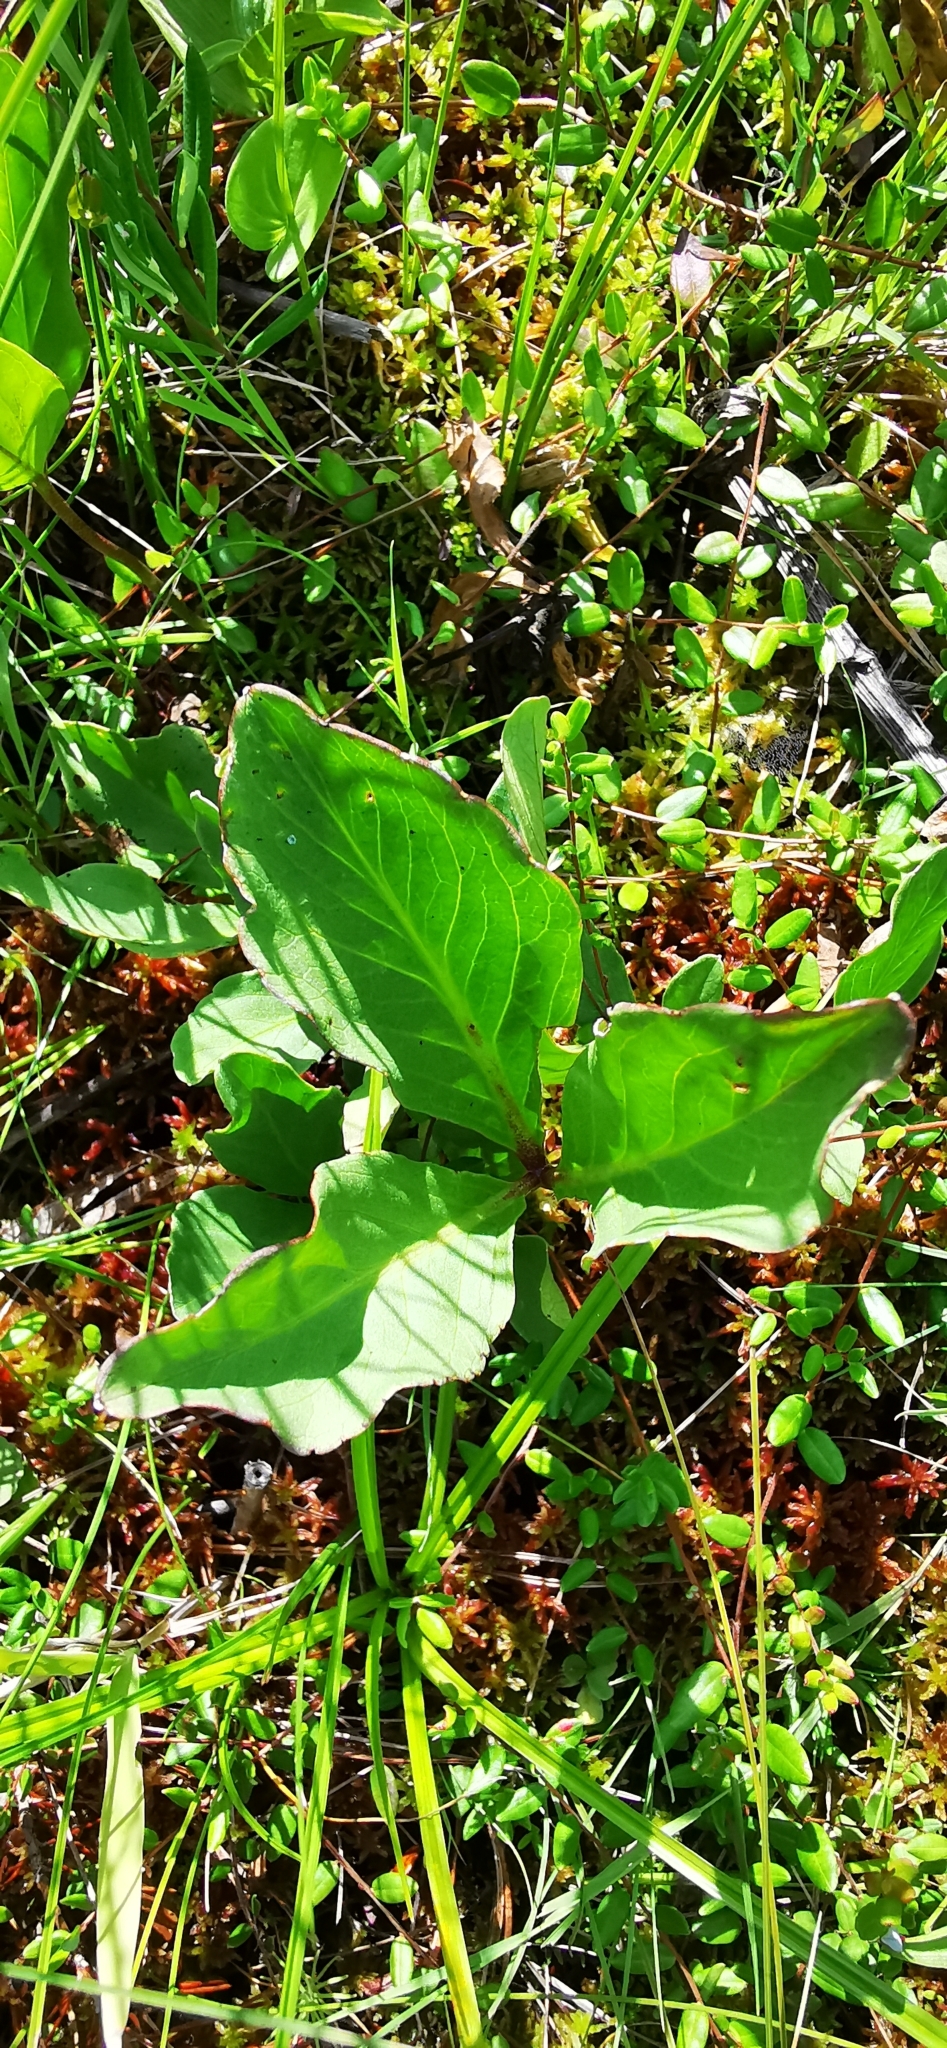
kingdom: Plantae
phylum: Tracheophyta
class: Magnoliopsida
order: Asterales
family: Menyanthaceae
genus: Menyanthes
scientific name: Menyanthes trifoliata
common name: Bogbean
